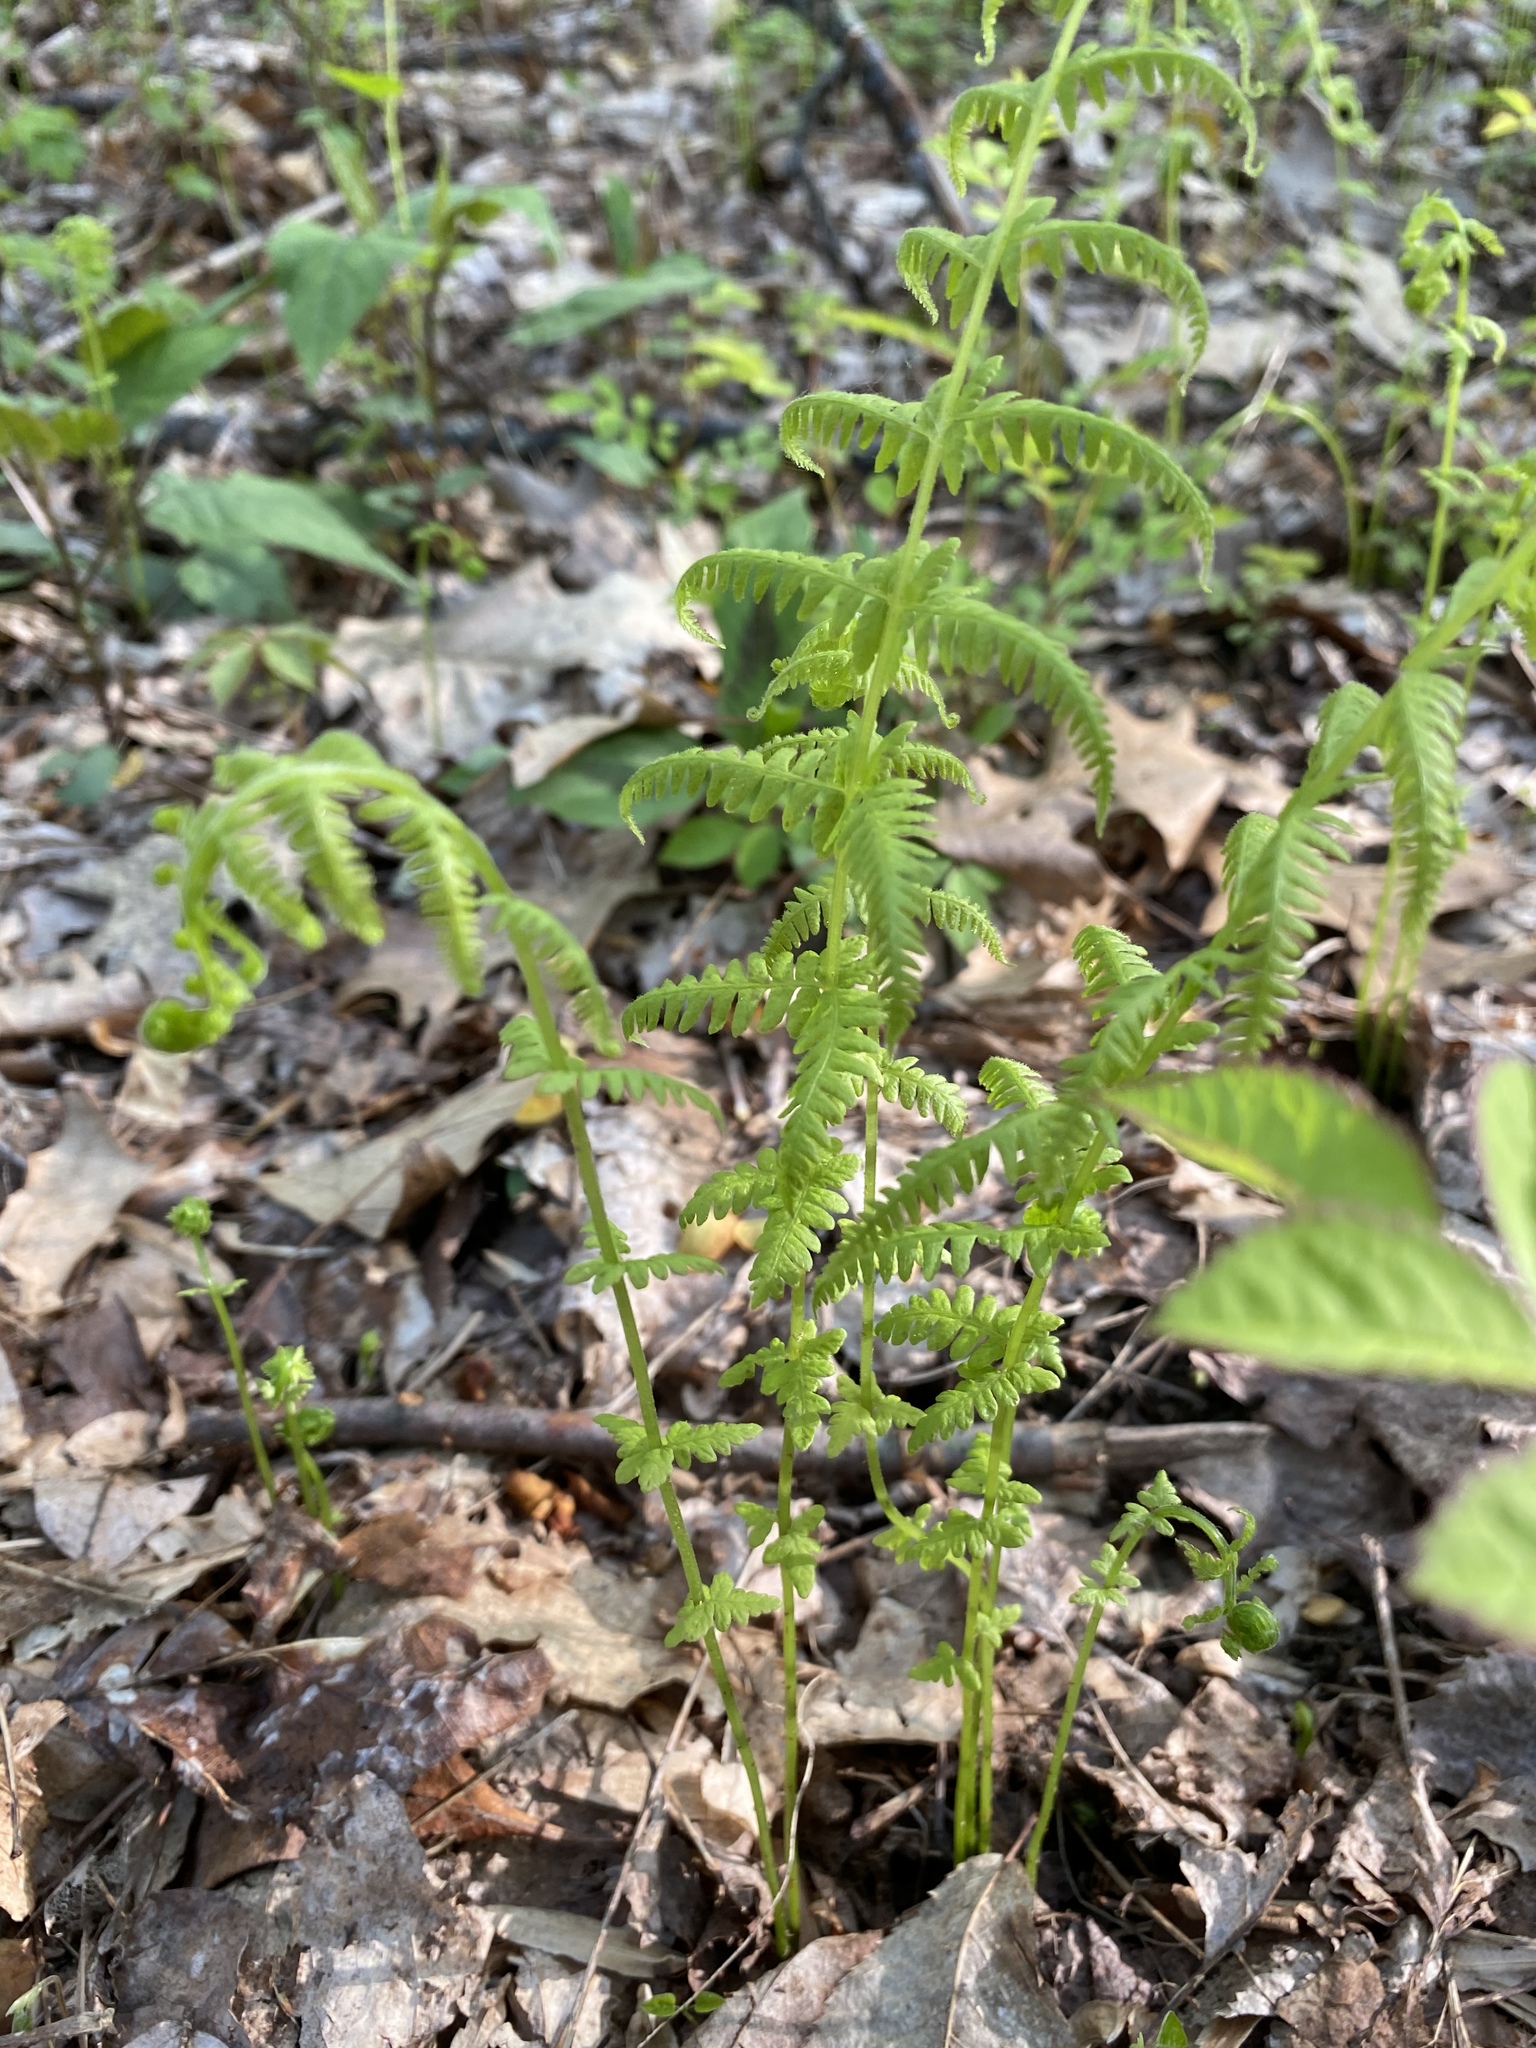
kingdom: Plantae
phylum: Tracheophyta
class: Polypodiopsida
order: Polypodiales
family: Thelypteridaceae
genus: Amauropelta
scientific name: Amauropelta noveboracensis
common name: New york fern
